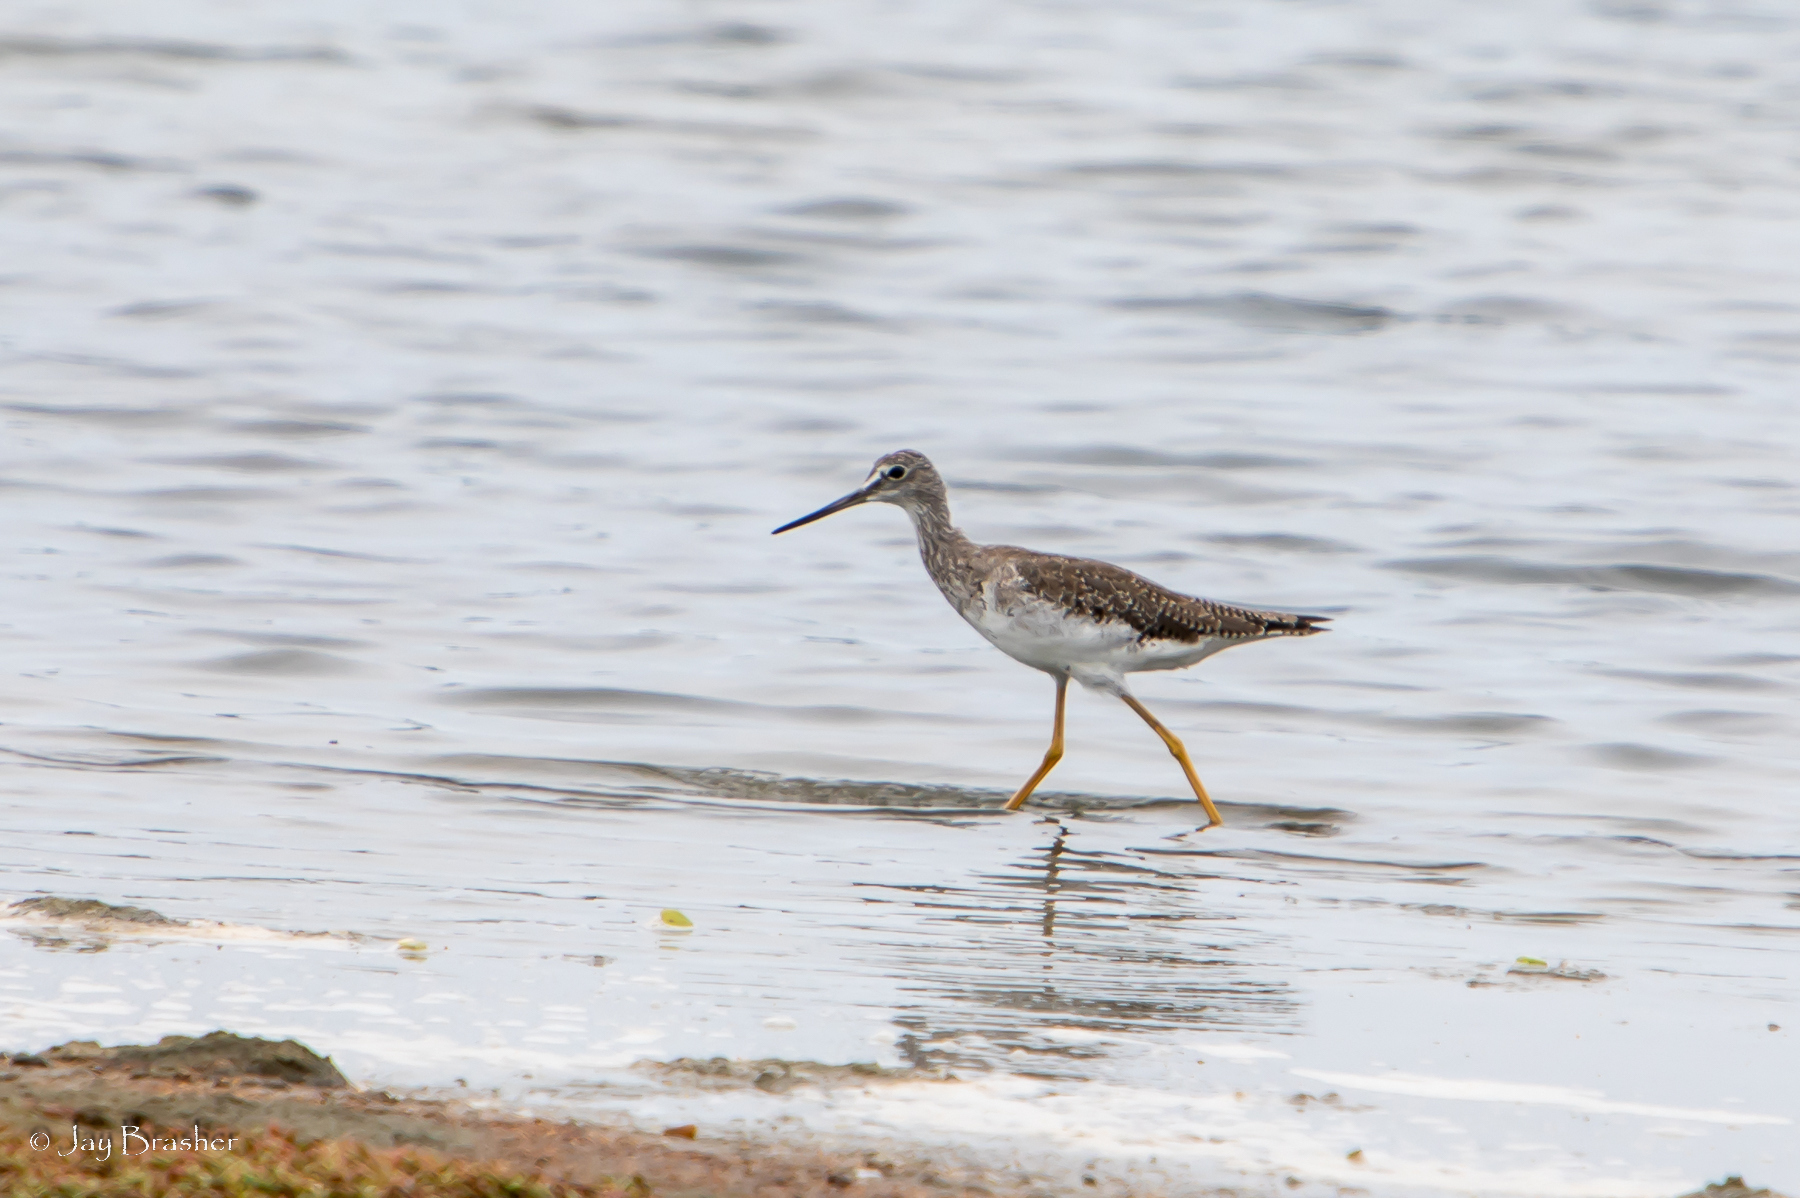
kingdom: Animalia
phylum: Chordata
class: Aves
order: Charadriiformes
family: Scolopacidae
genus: Tringa
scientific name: Tringa melanoleuca
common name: Greater yellowlegs
